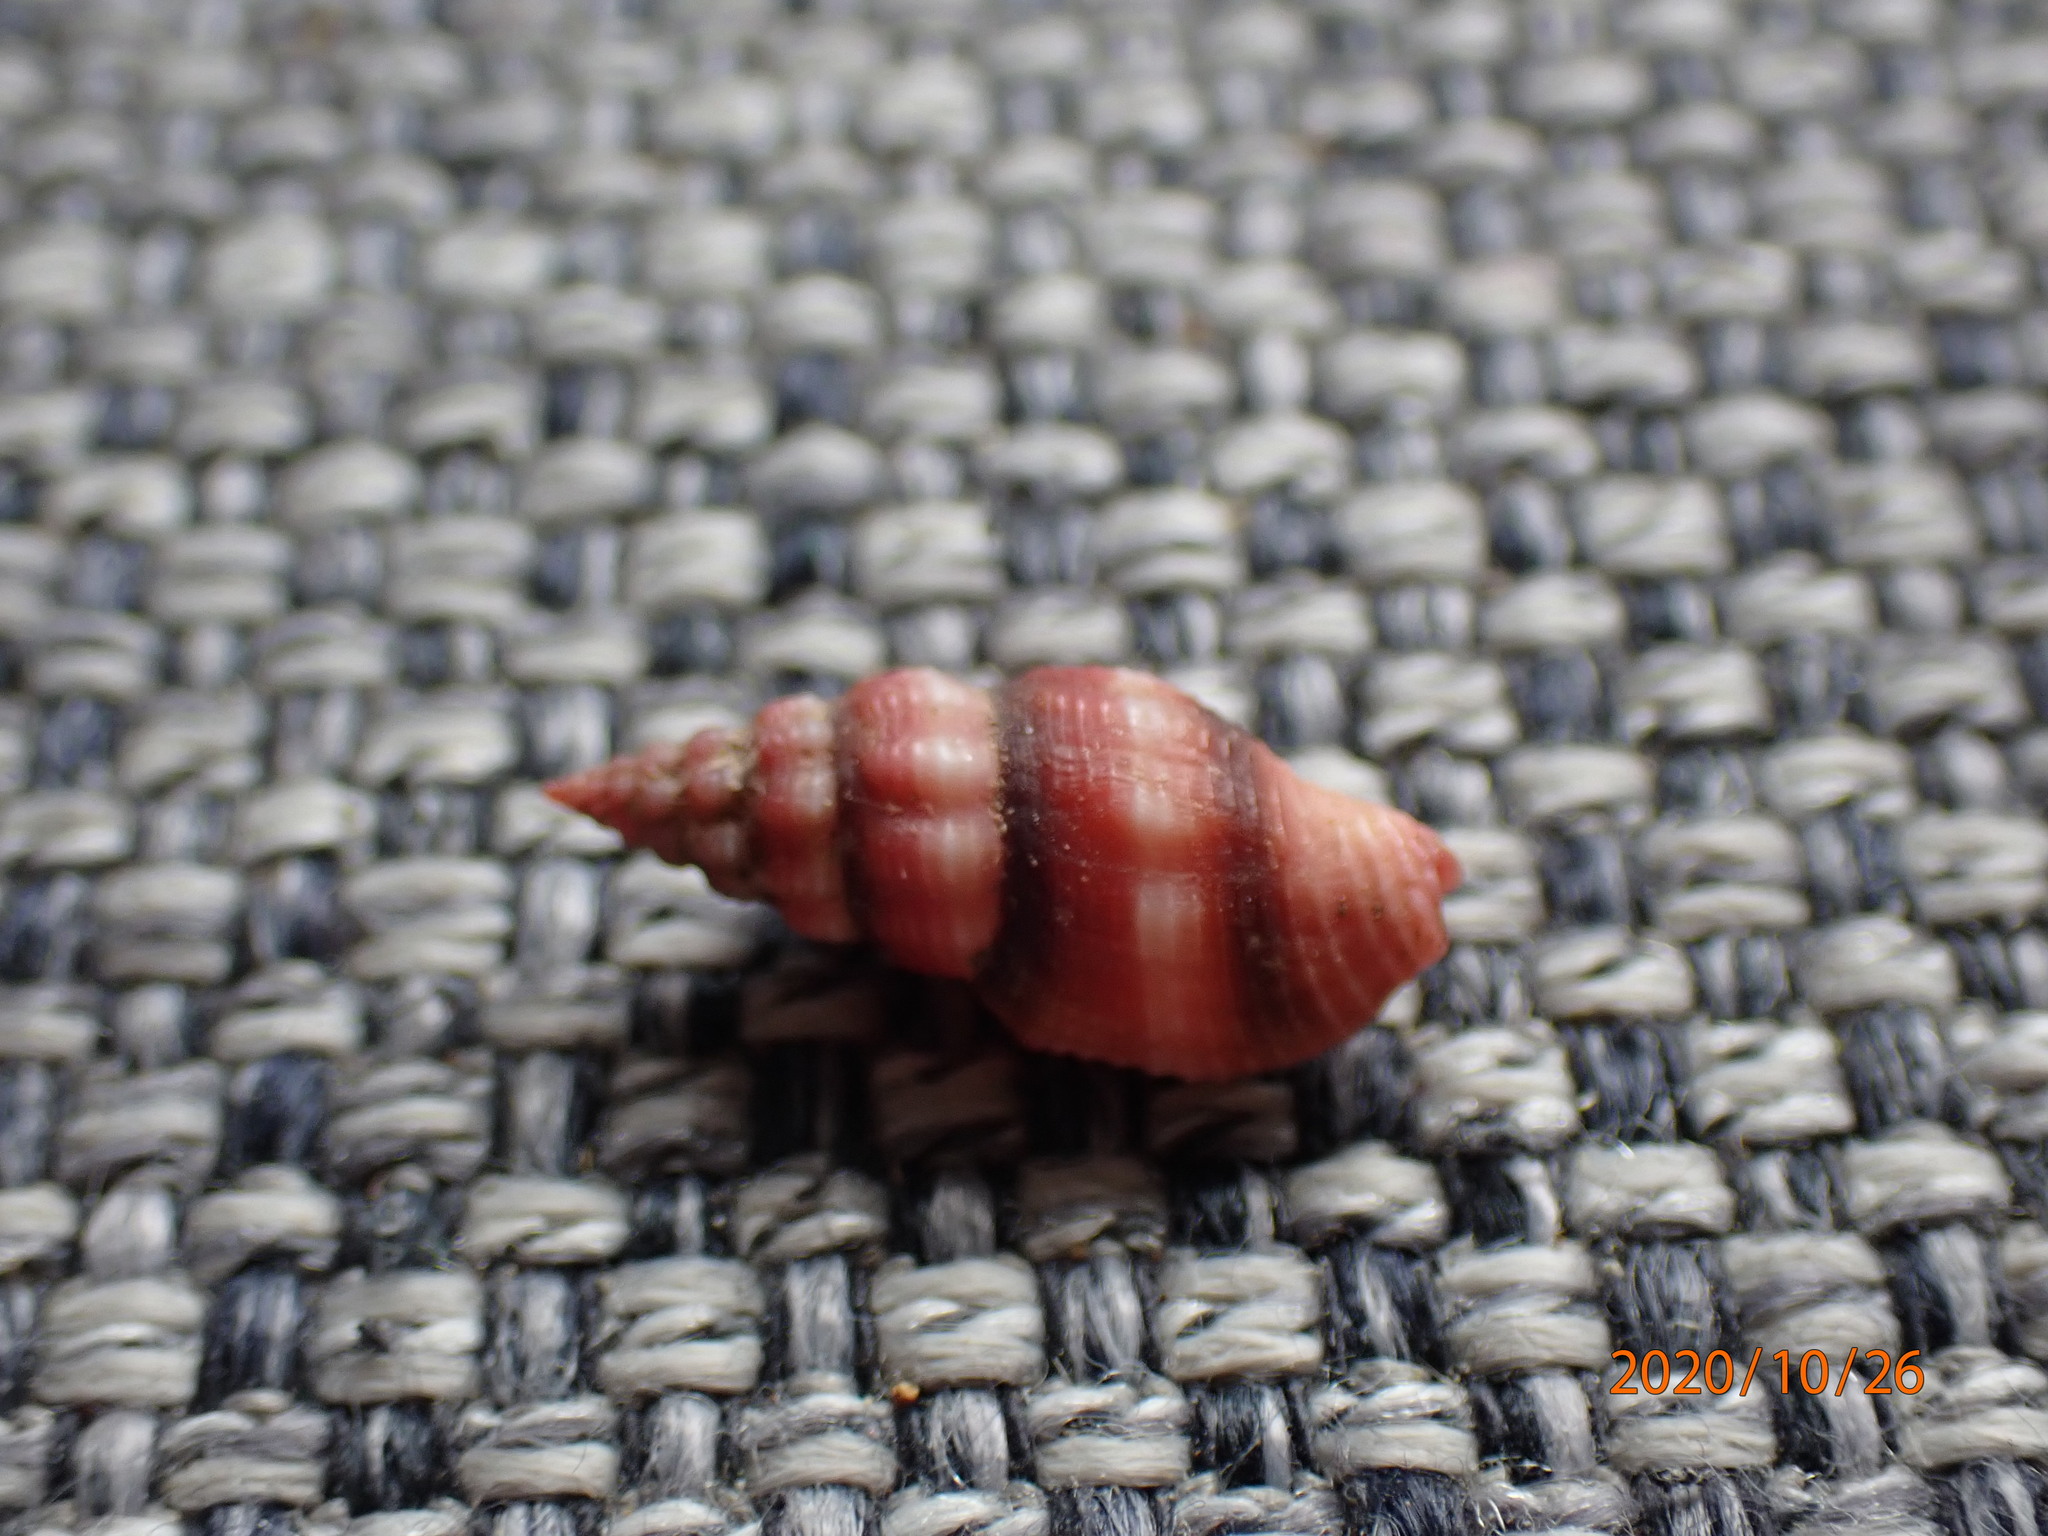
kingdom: Animalia
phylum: Mollusca
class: Gastropoda
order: Neogastropoda
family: Clathurellidae
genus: Lienardia
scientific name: Lienardia rubida
